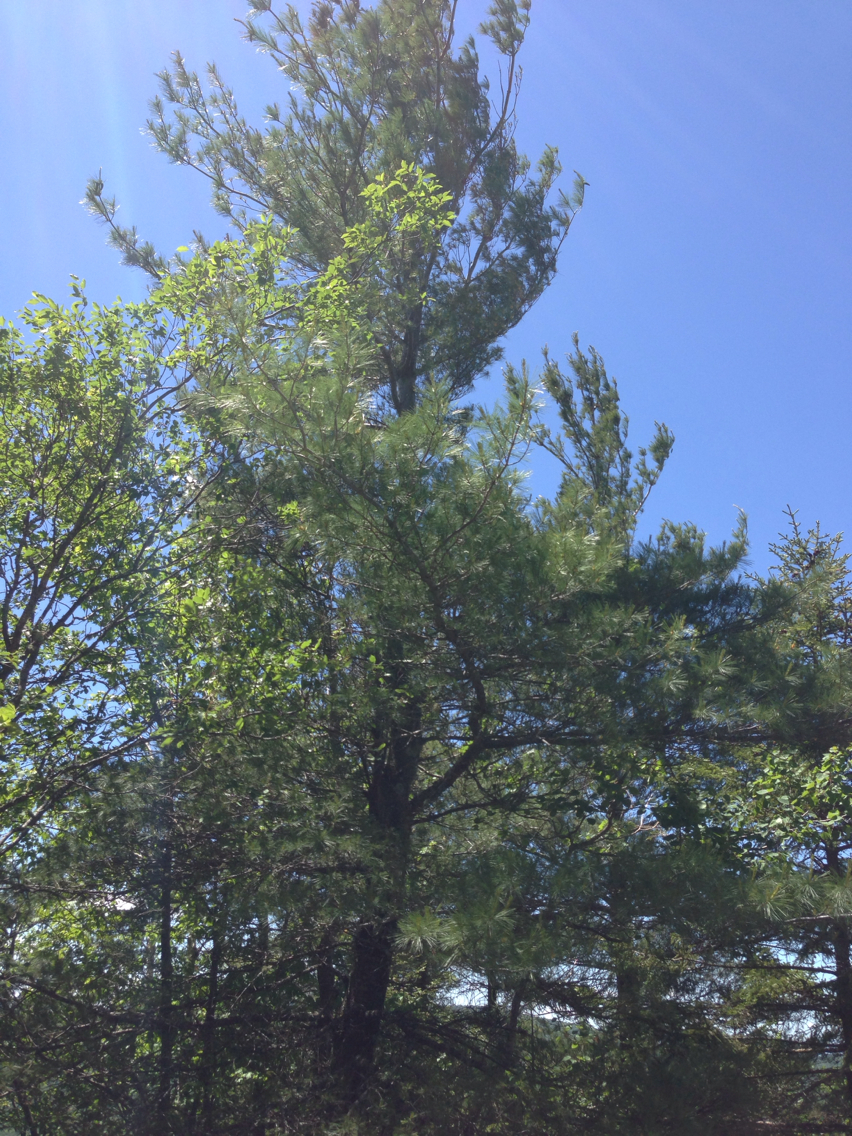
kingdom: Plantae
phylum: Tracheophyta
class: Pinopsida
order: Pinales
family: Pinaceae
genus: Pinus
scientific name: Pinus strobus
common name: Weymouth pine
